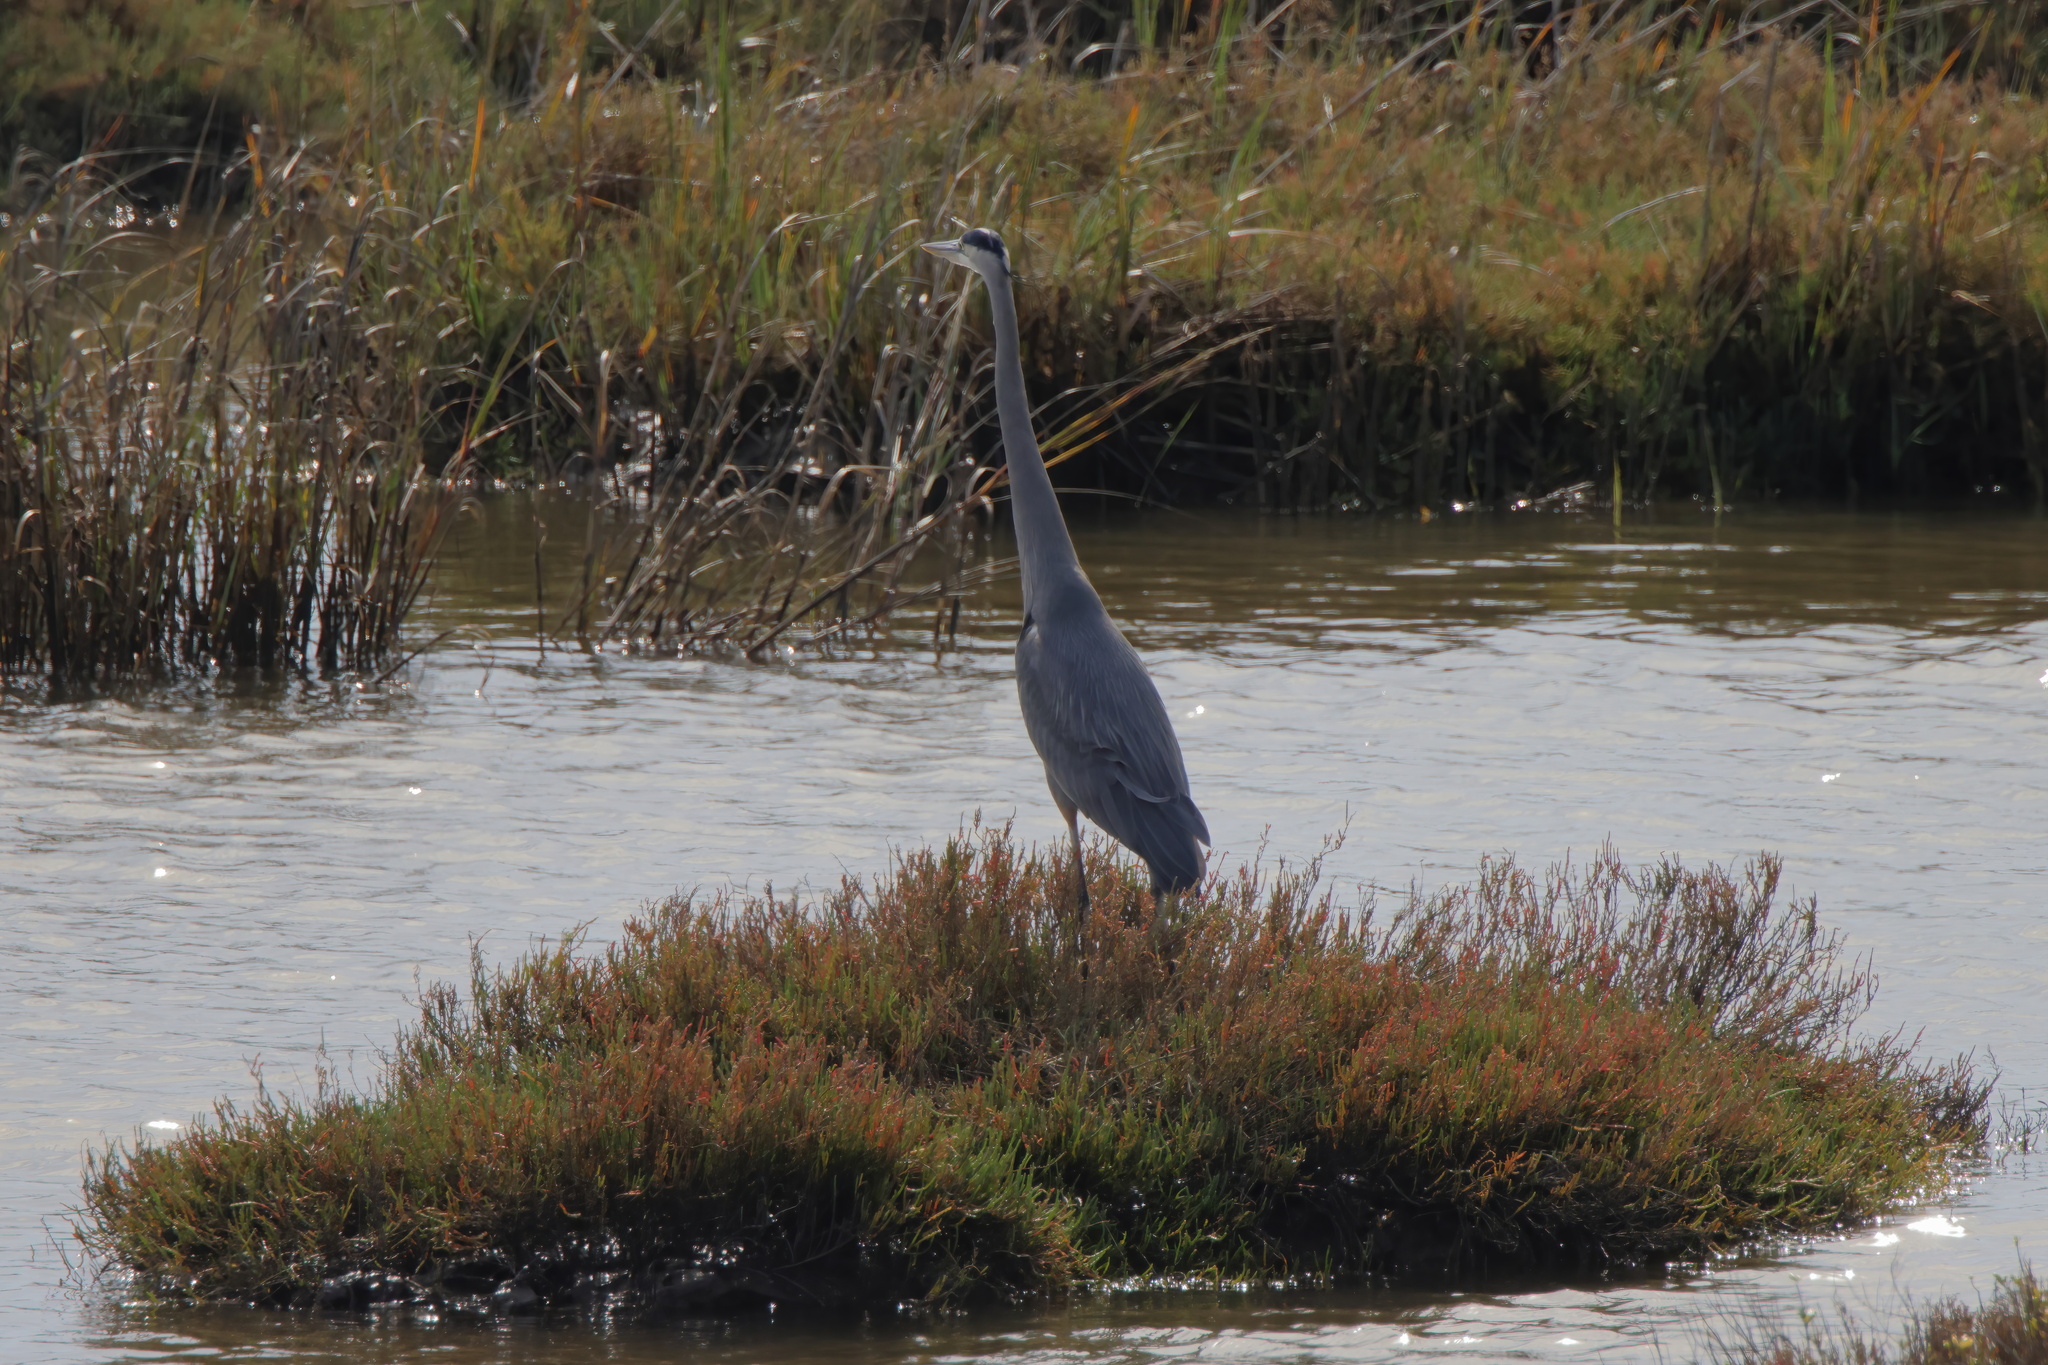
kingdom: Animalia
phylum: Chordata
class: Aves
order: Pelecaniformes
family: Ardeidae
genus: Ardea
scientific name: Ardea herodias
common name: Great blue heron
